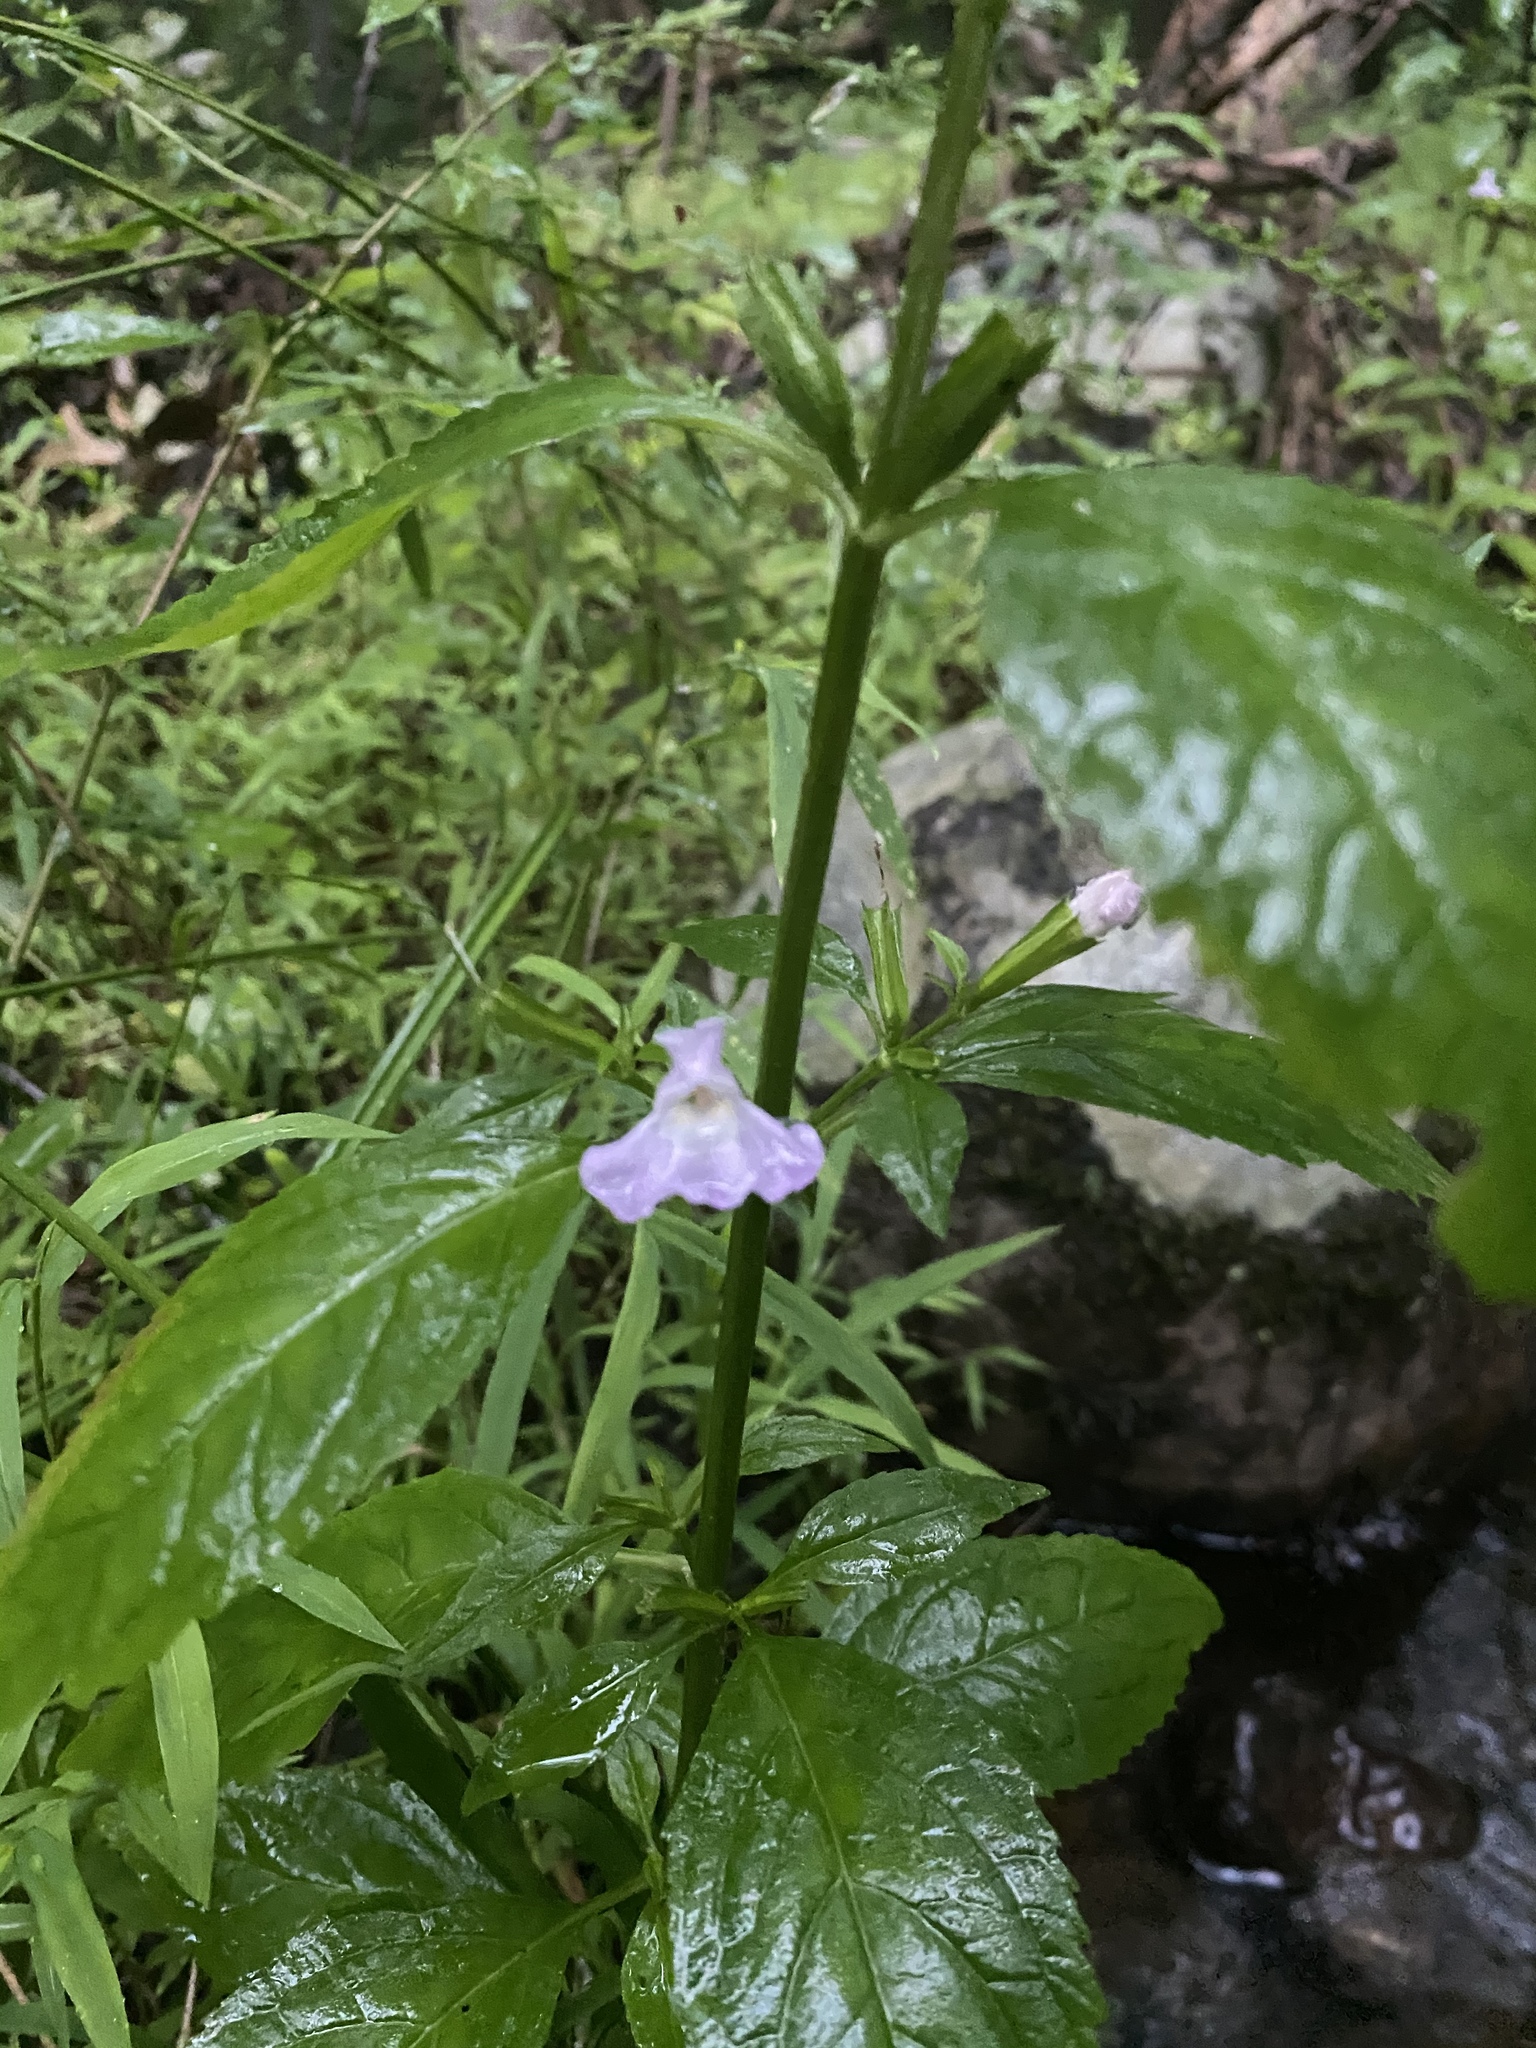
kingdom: Plantae
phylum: Tracheophyta
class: Magnoliopsida
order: Lamiales
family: Phrymaceae
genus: Mimulus
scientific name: Mimulus alatus
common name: Sharp-wing monkey-flower
